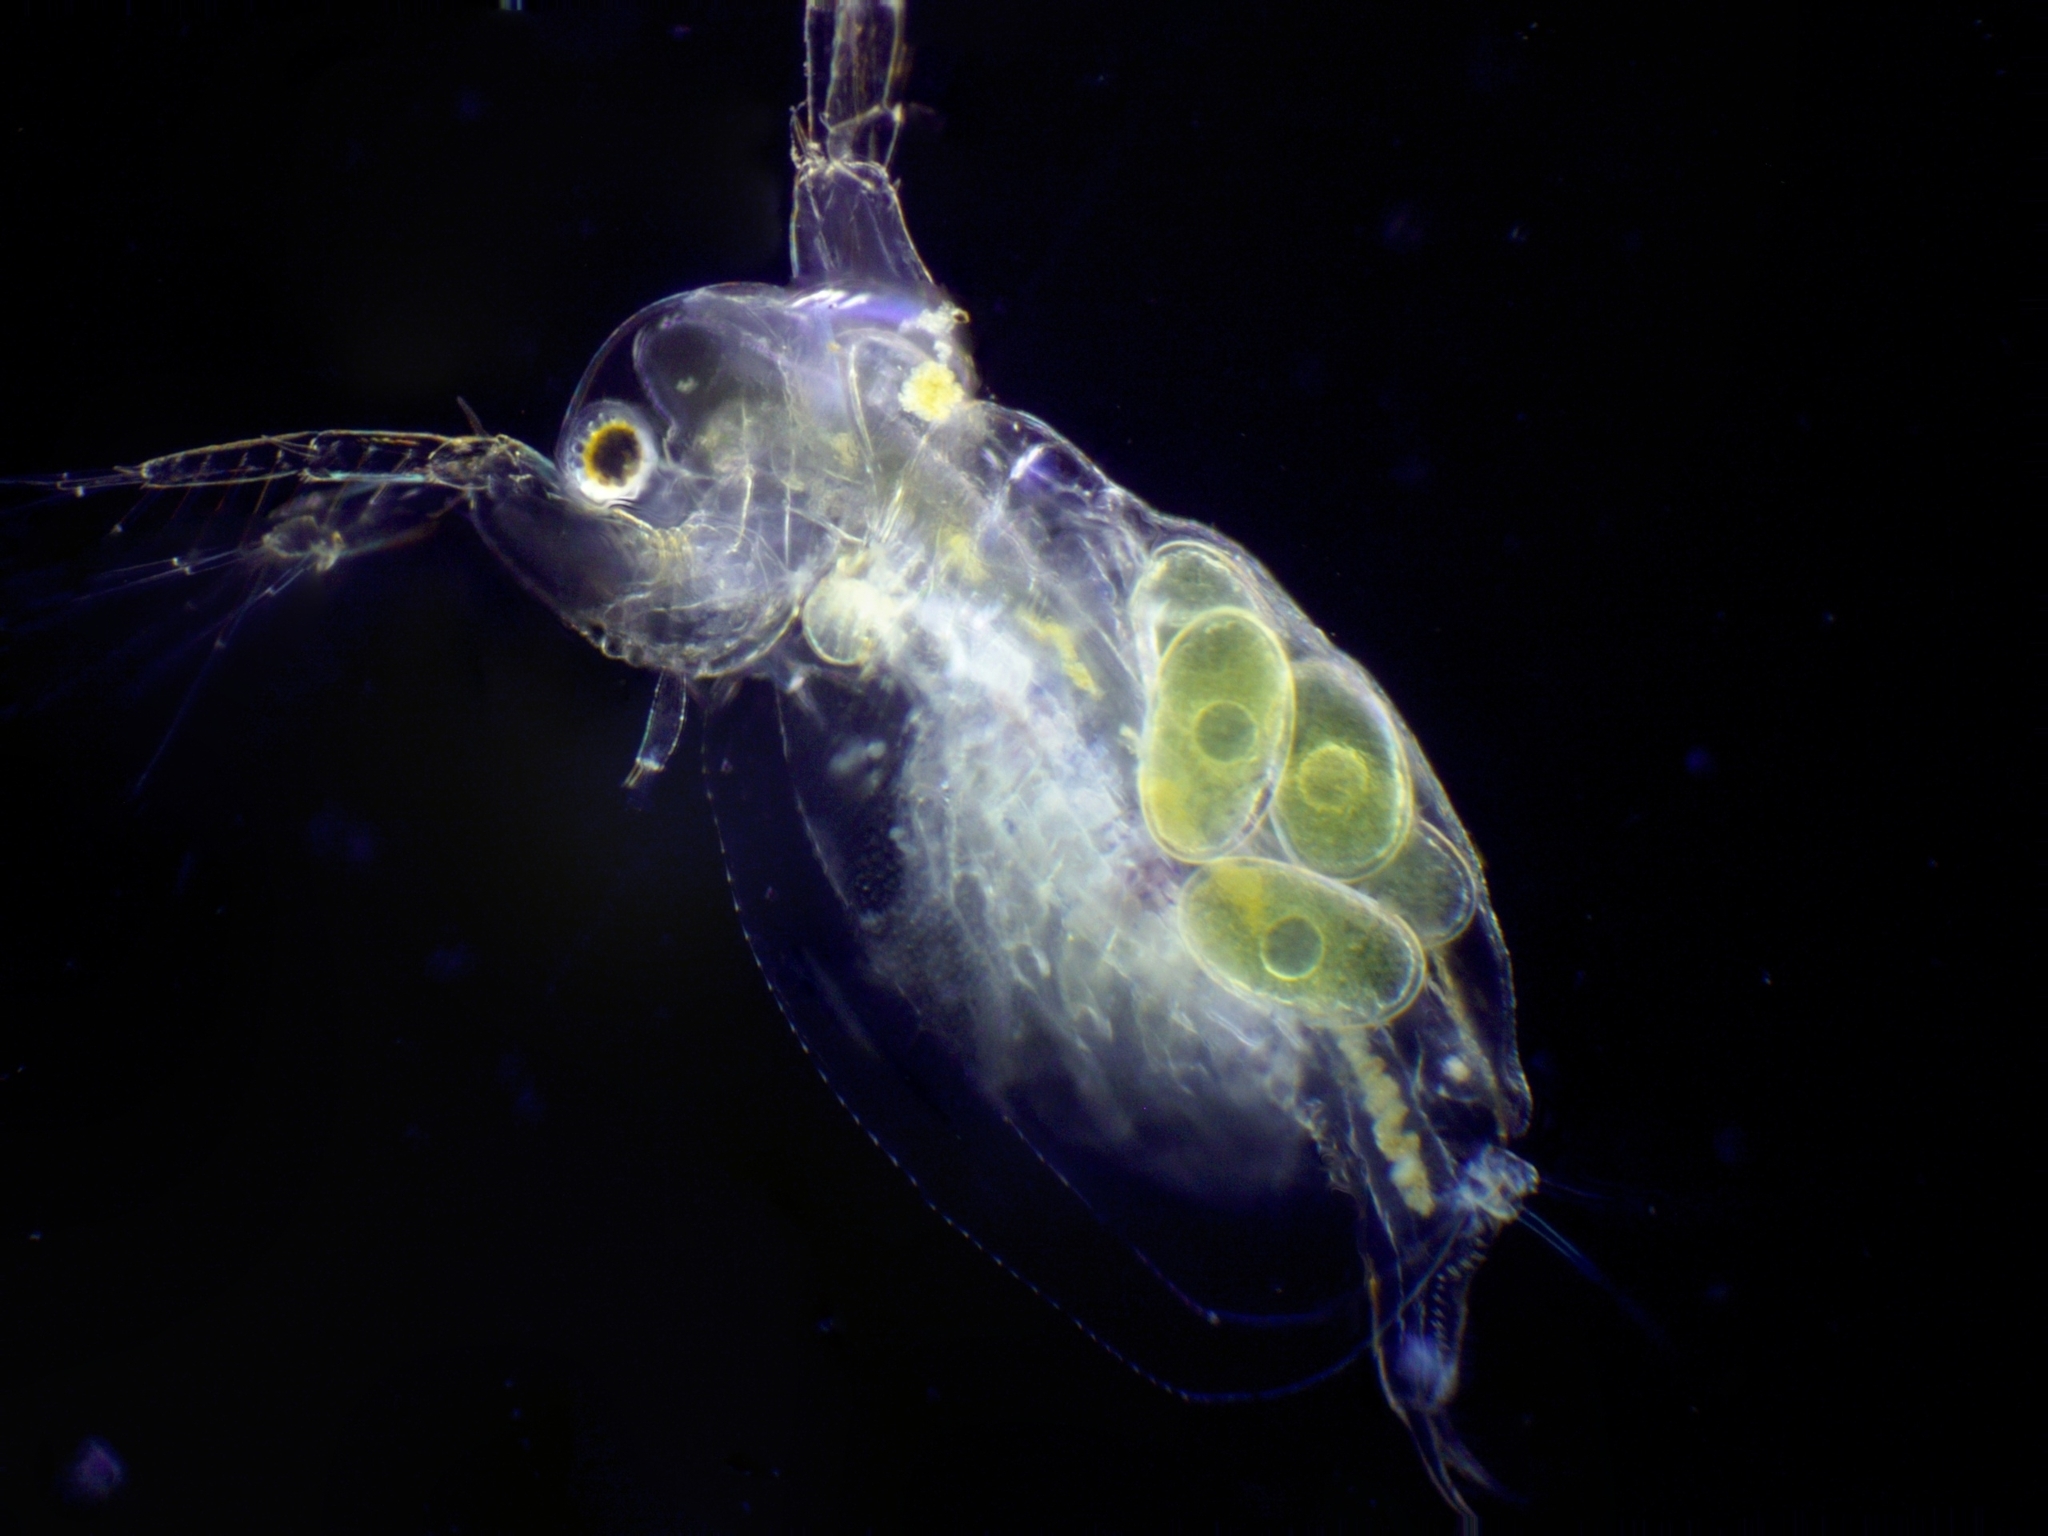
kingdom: Animalia
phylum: Arthropoda
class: Branchiopoda
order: Diplostraca
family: Sididae
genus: Sida
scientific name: Sida crystallina
